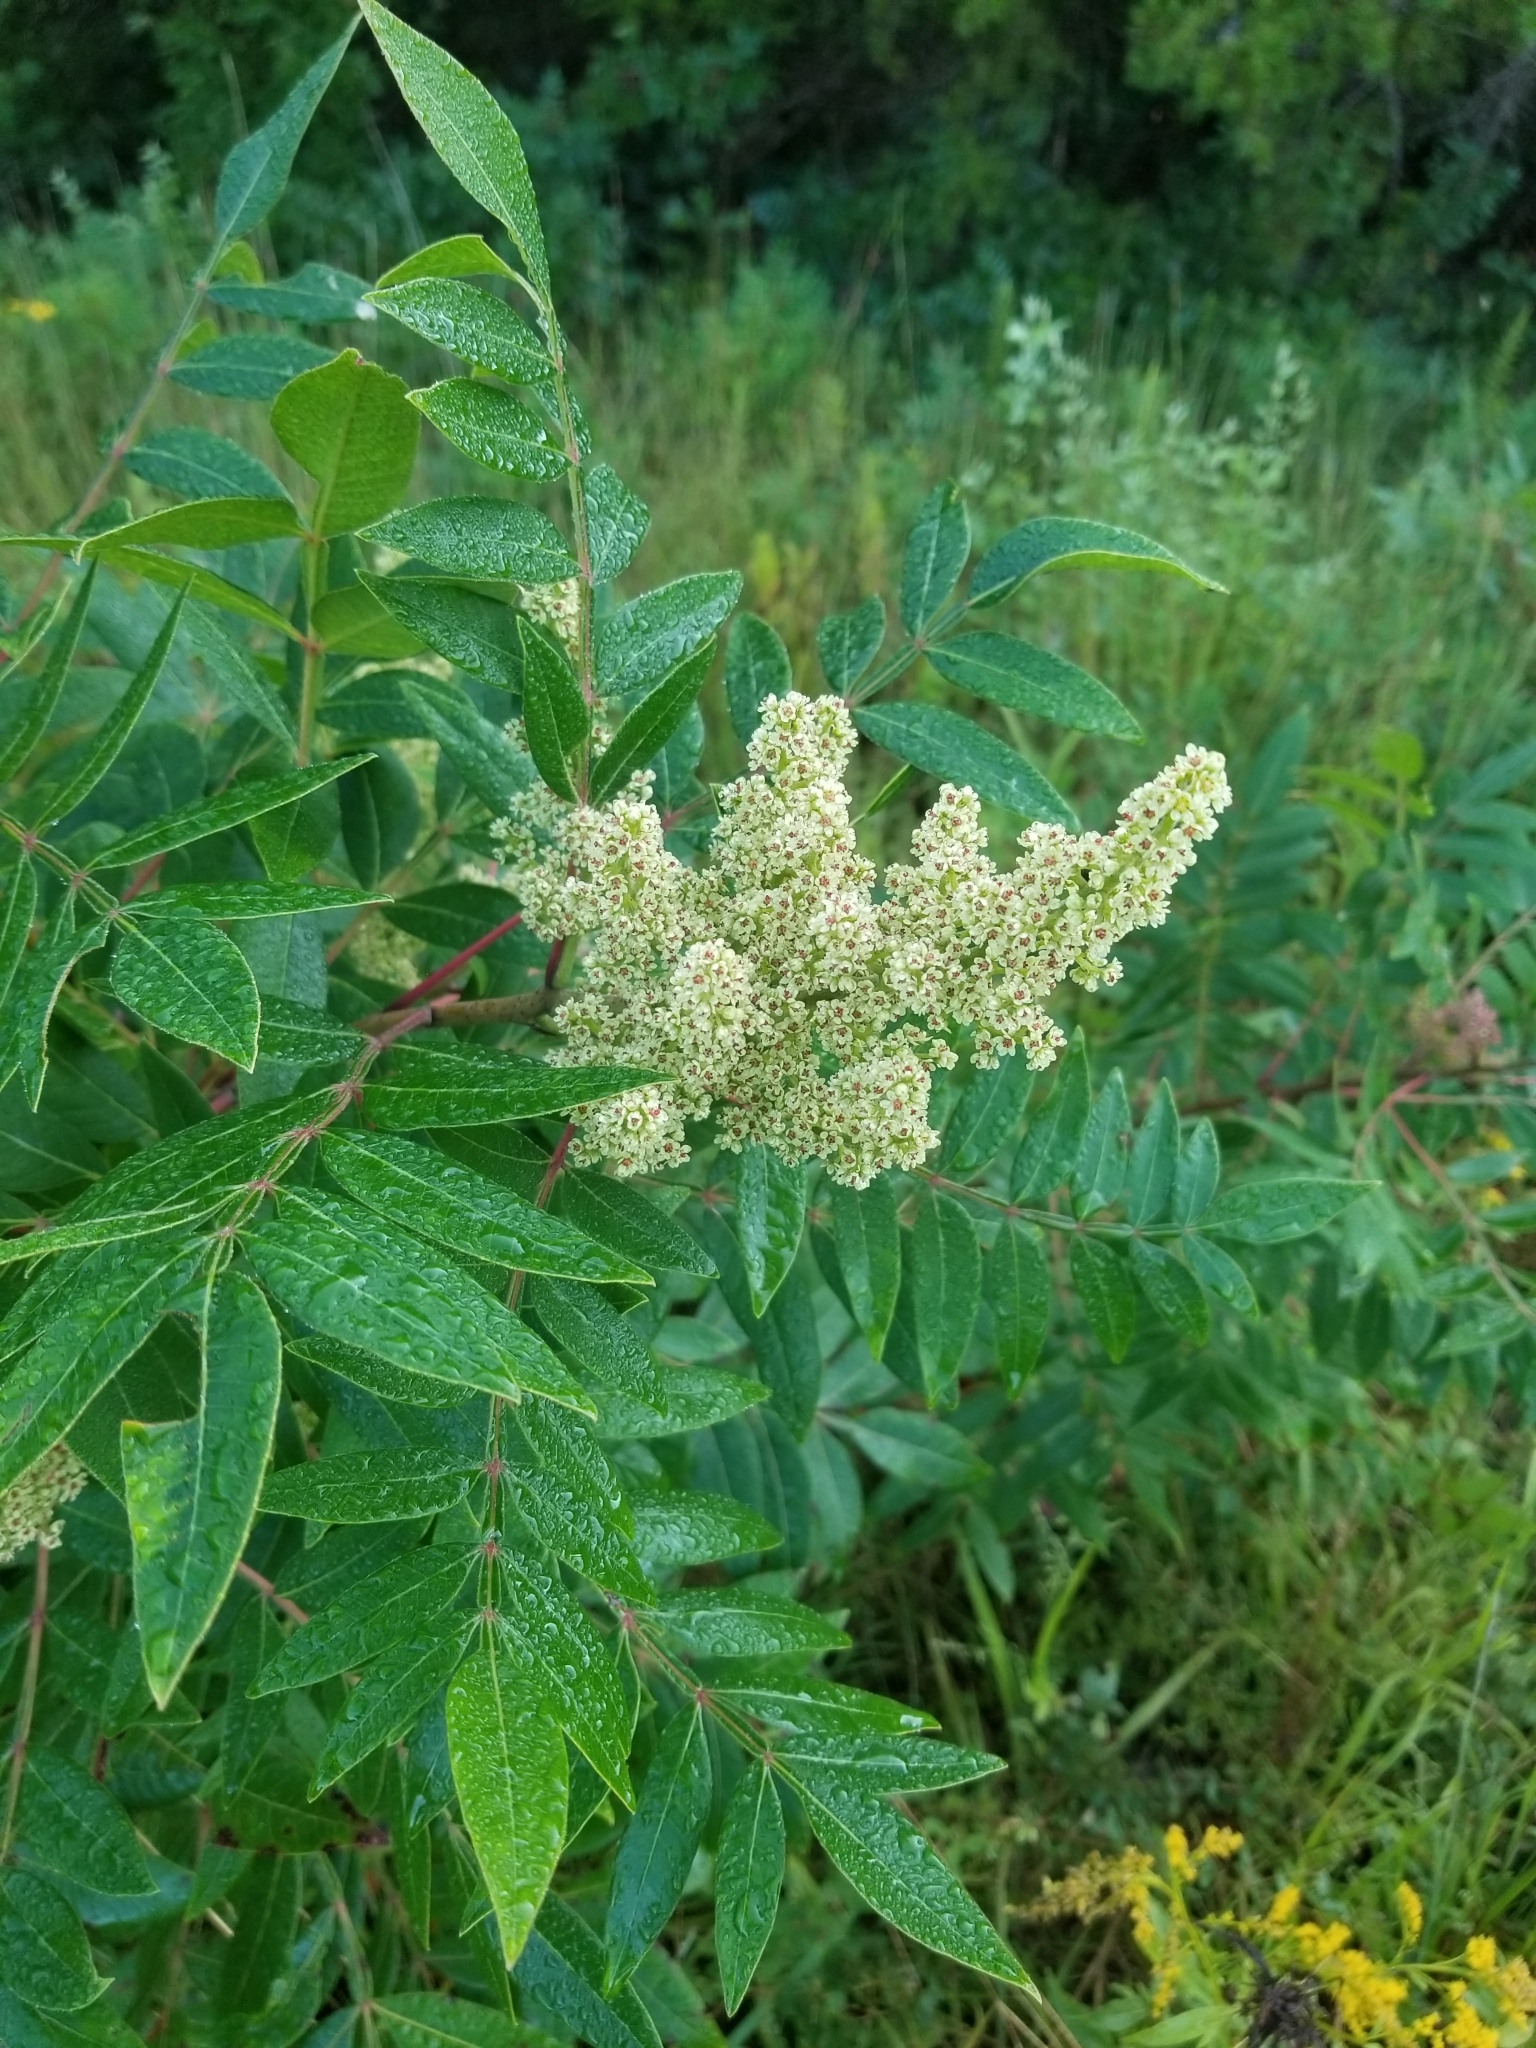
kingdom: Plantae
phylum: Tracheophyta
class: Magnoliopsida
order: Sapindales
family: Anacardiaceae
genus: Rhus
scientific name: Rhus copallina
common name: Shining sumac
